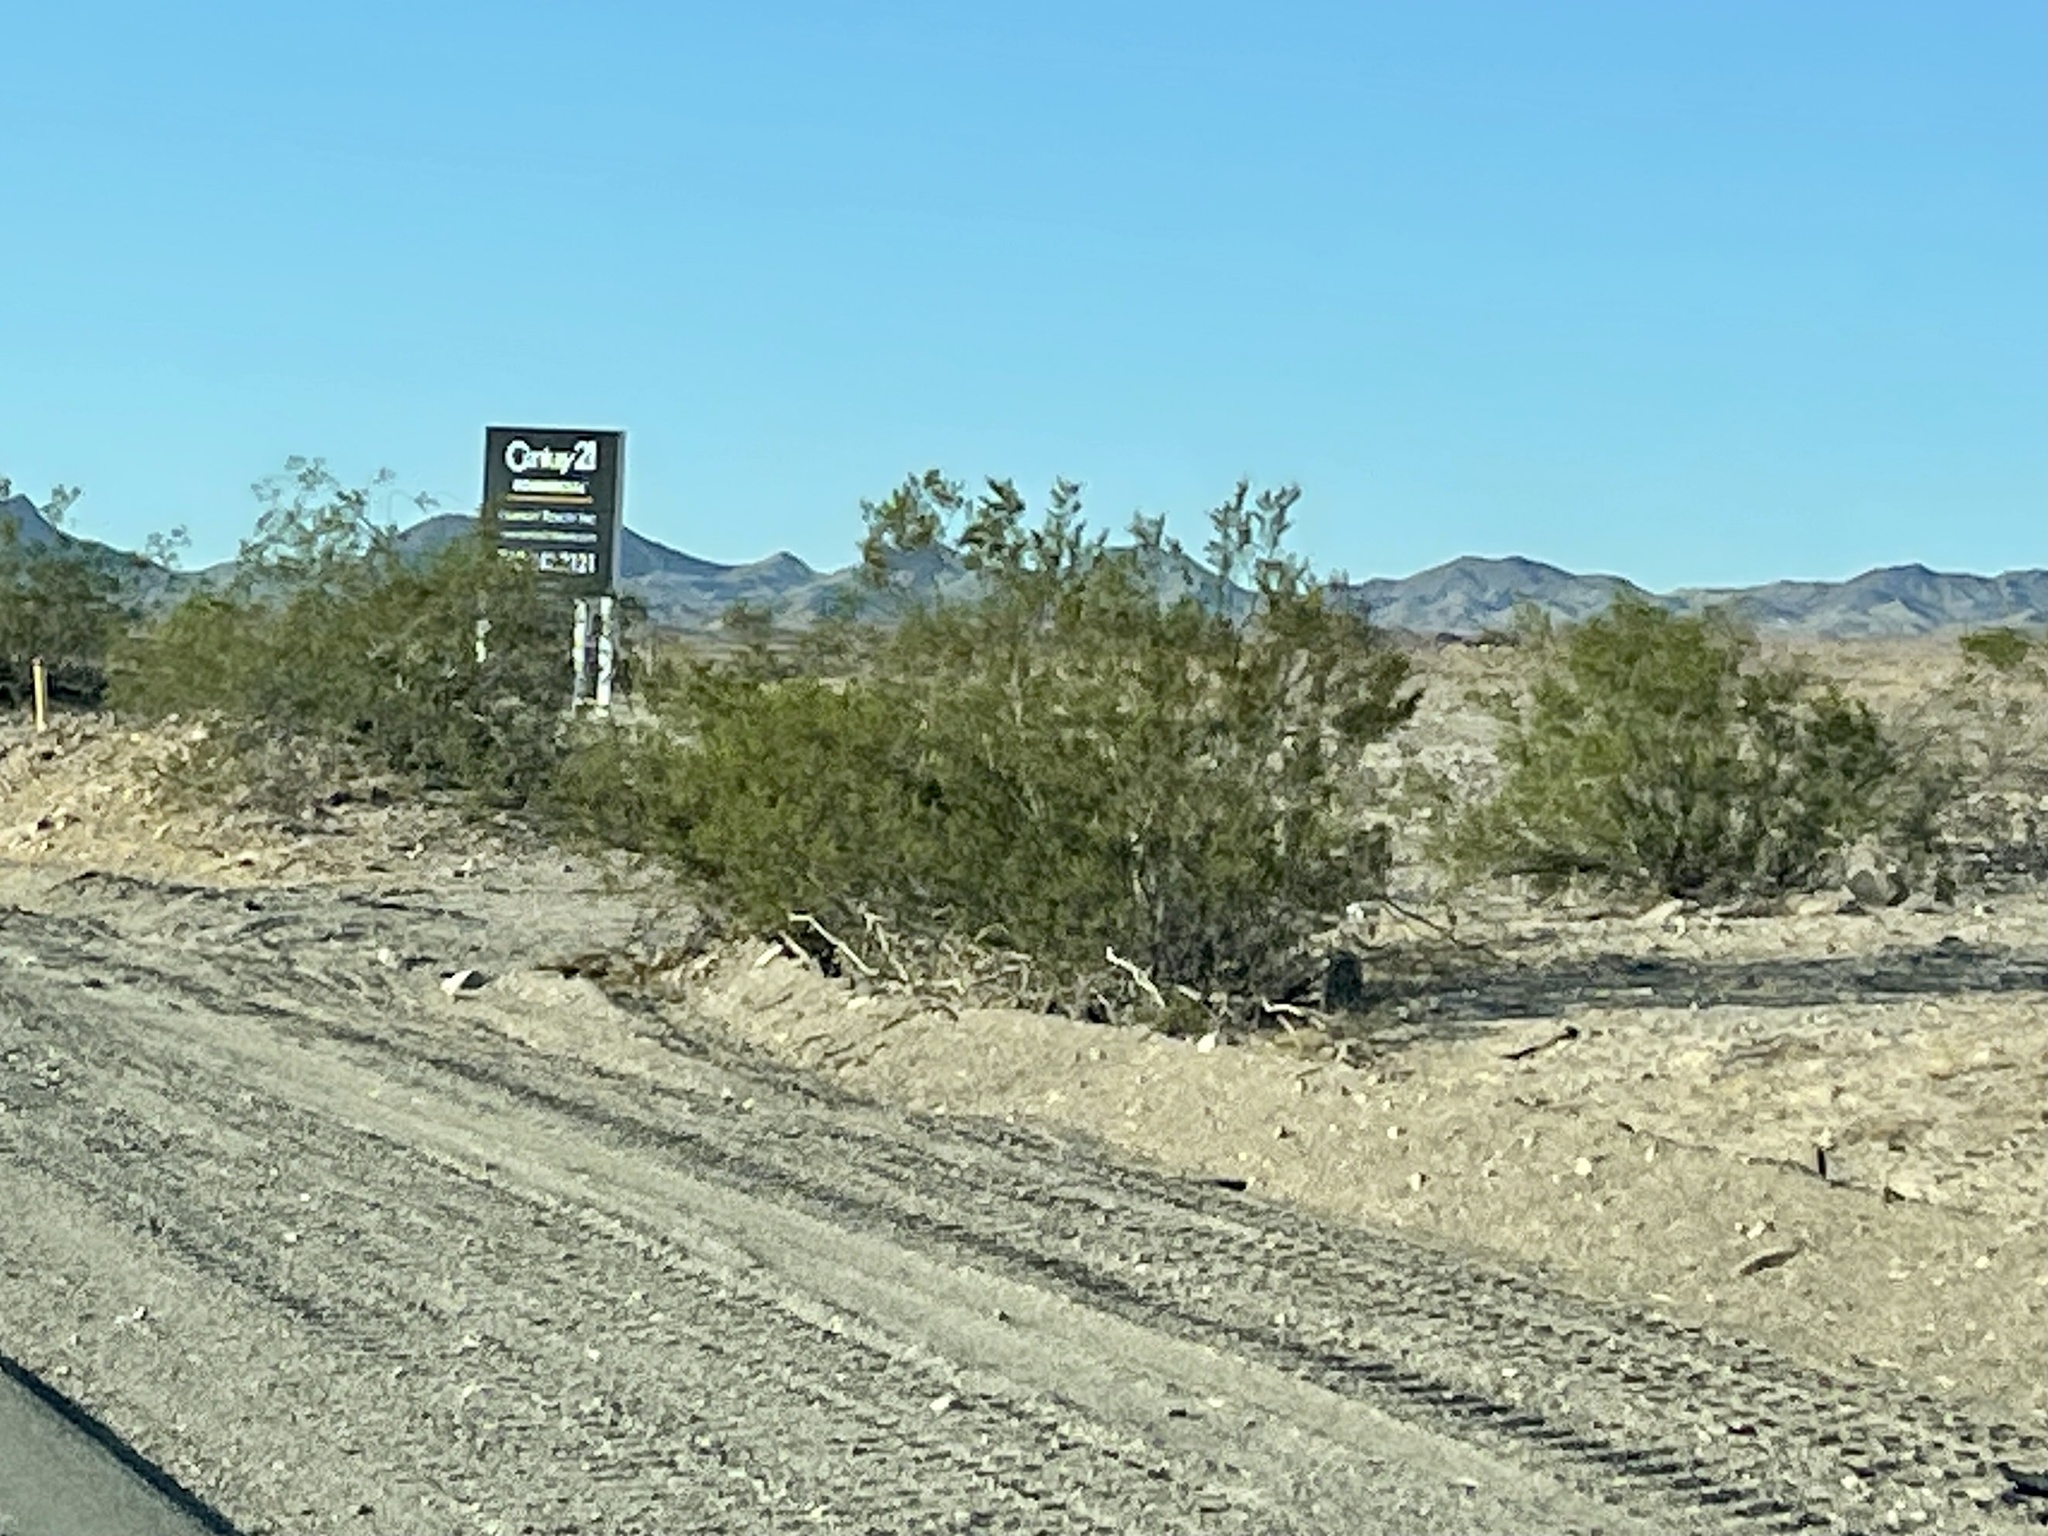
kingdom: Plantae
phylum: Tracheophyta
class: Magnoliopsida
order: Zygophyllales
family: Zygophyllaceae
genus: Larrea
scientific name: Larrea tridentata
